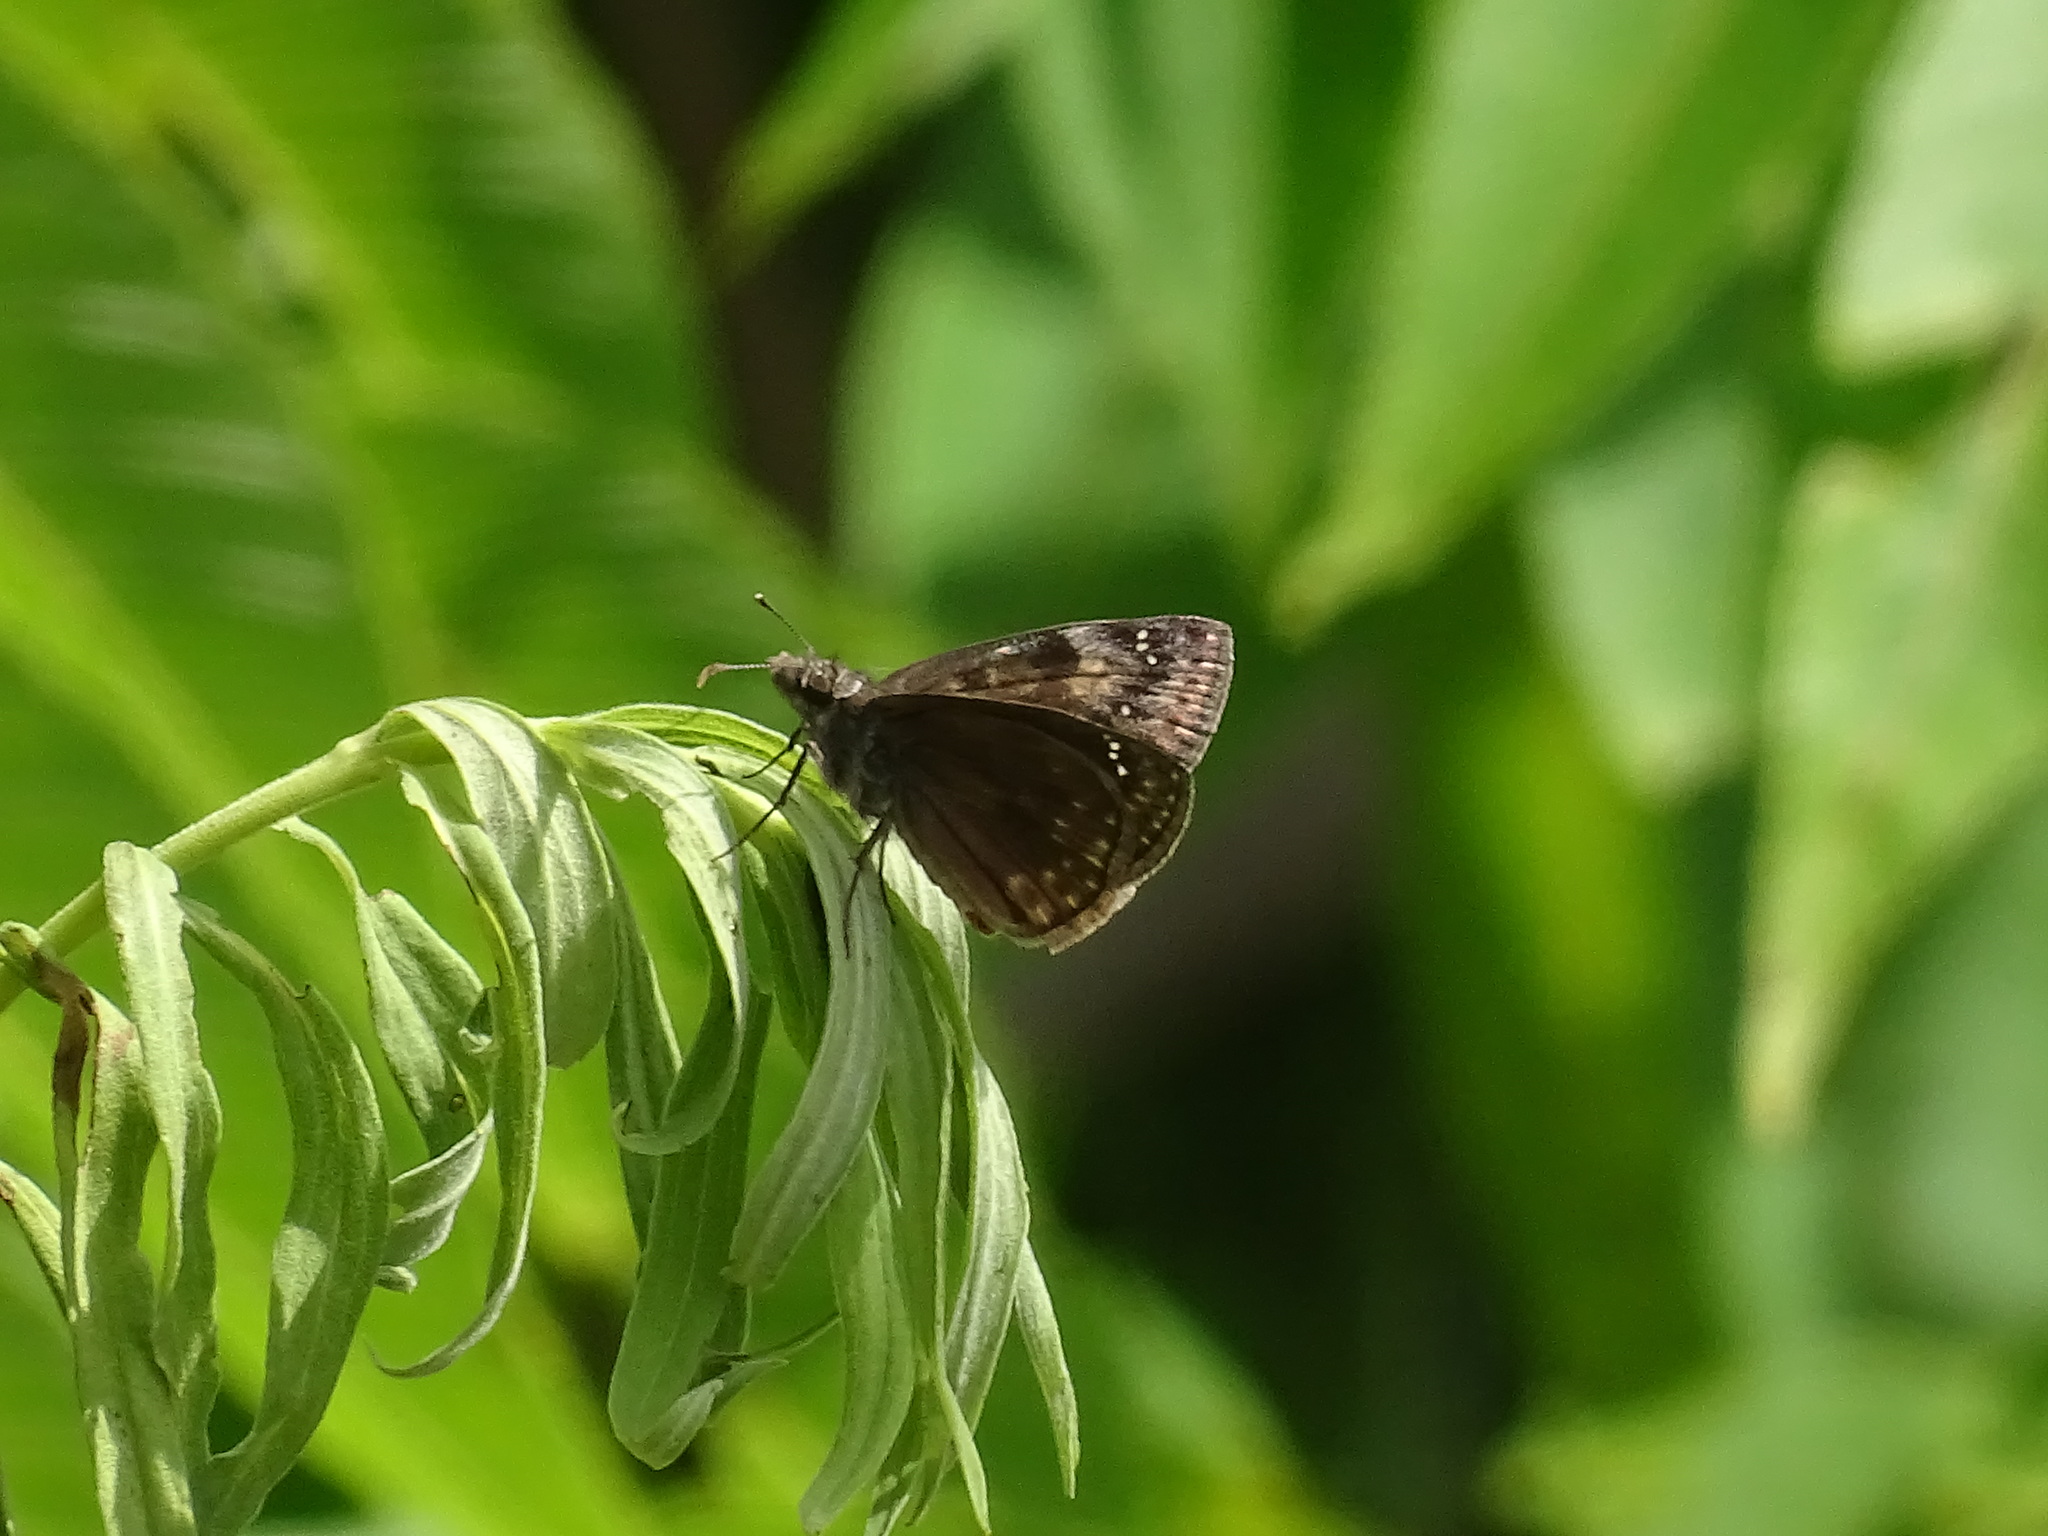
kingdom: Animalia
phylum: Arthropoda
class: Insecta
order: Lepidoptera
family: Hesperiidae
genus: Erynnis
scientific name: Erynnis baptisiae
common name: Wild indigo duskywing
